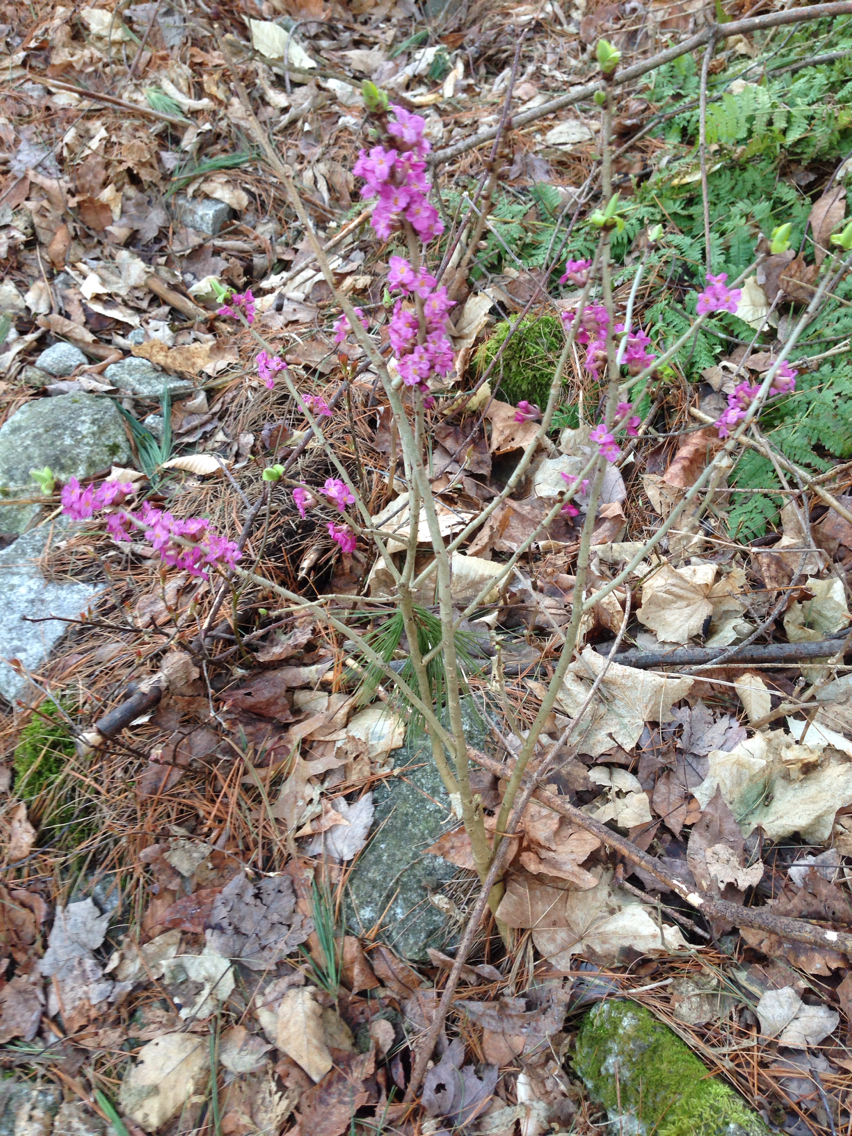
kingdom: Plantae
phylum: Tracheophyta
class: Magnoliopsida
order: Malvales
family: Thymelaeaceae
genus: Daphne
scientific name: Daphne mezereum
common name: Mezereon
